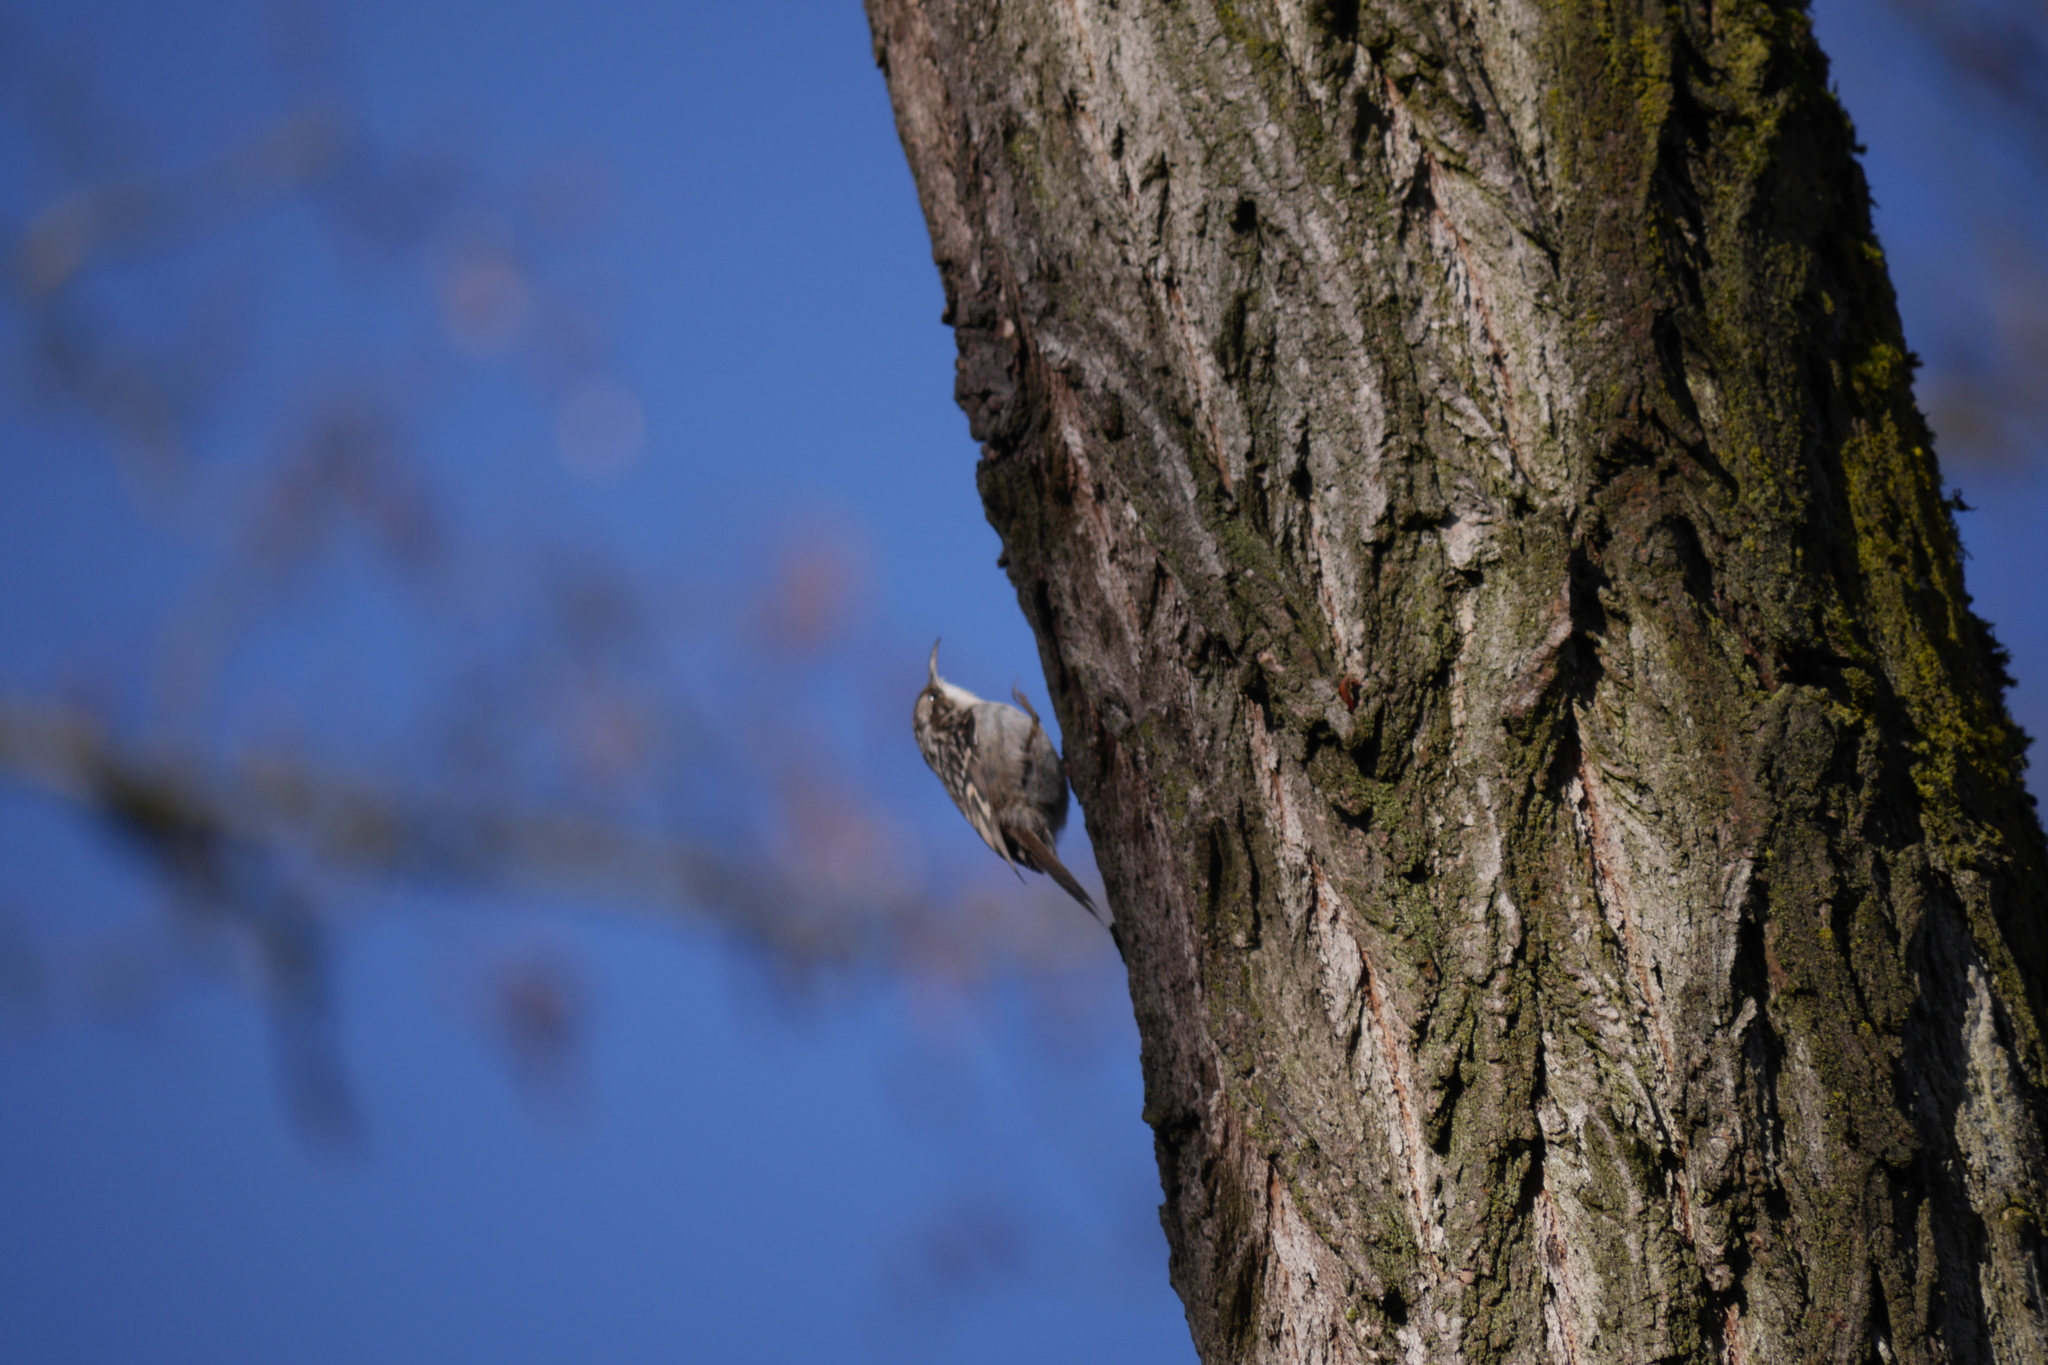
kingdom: Animalia
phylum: Chordata
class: Aves
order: Passeriformes
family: Certhiidae
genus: Certhia
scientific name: Certhia brachydactyla
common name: Short-toed treecreeper
